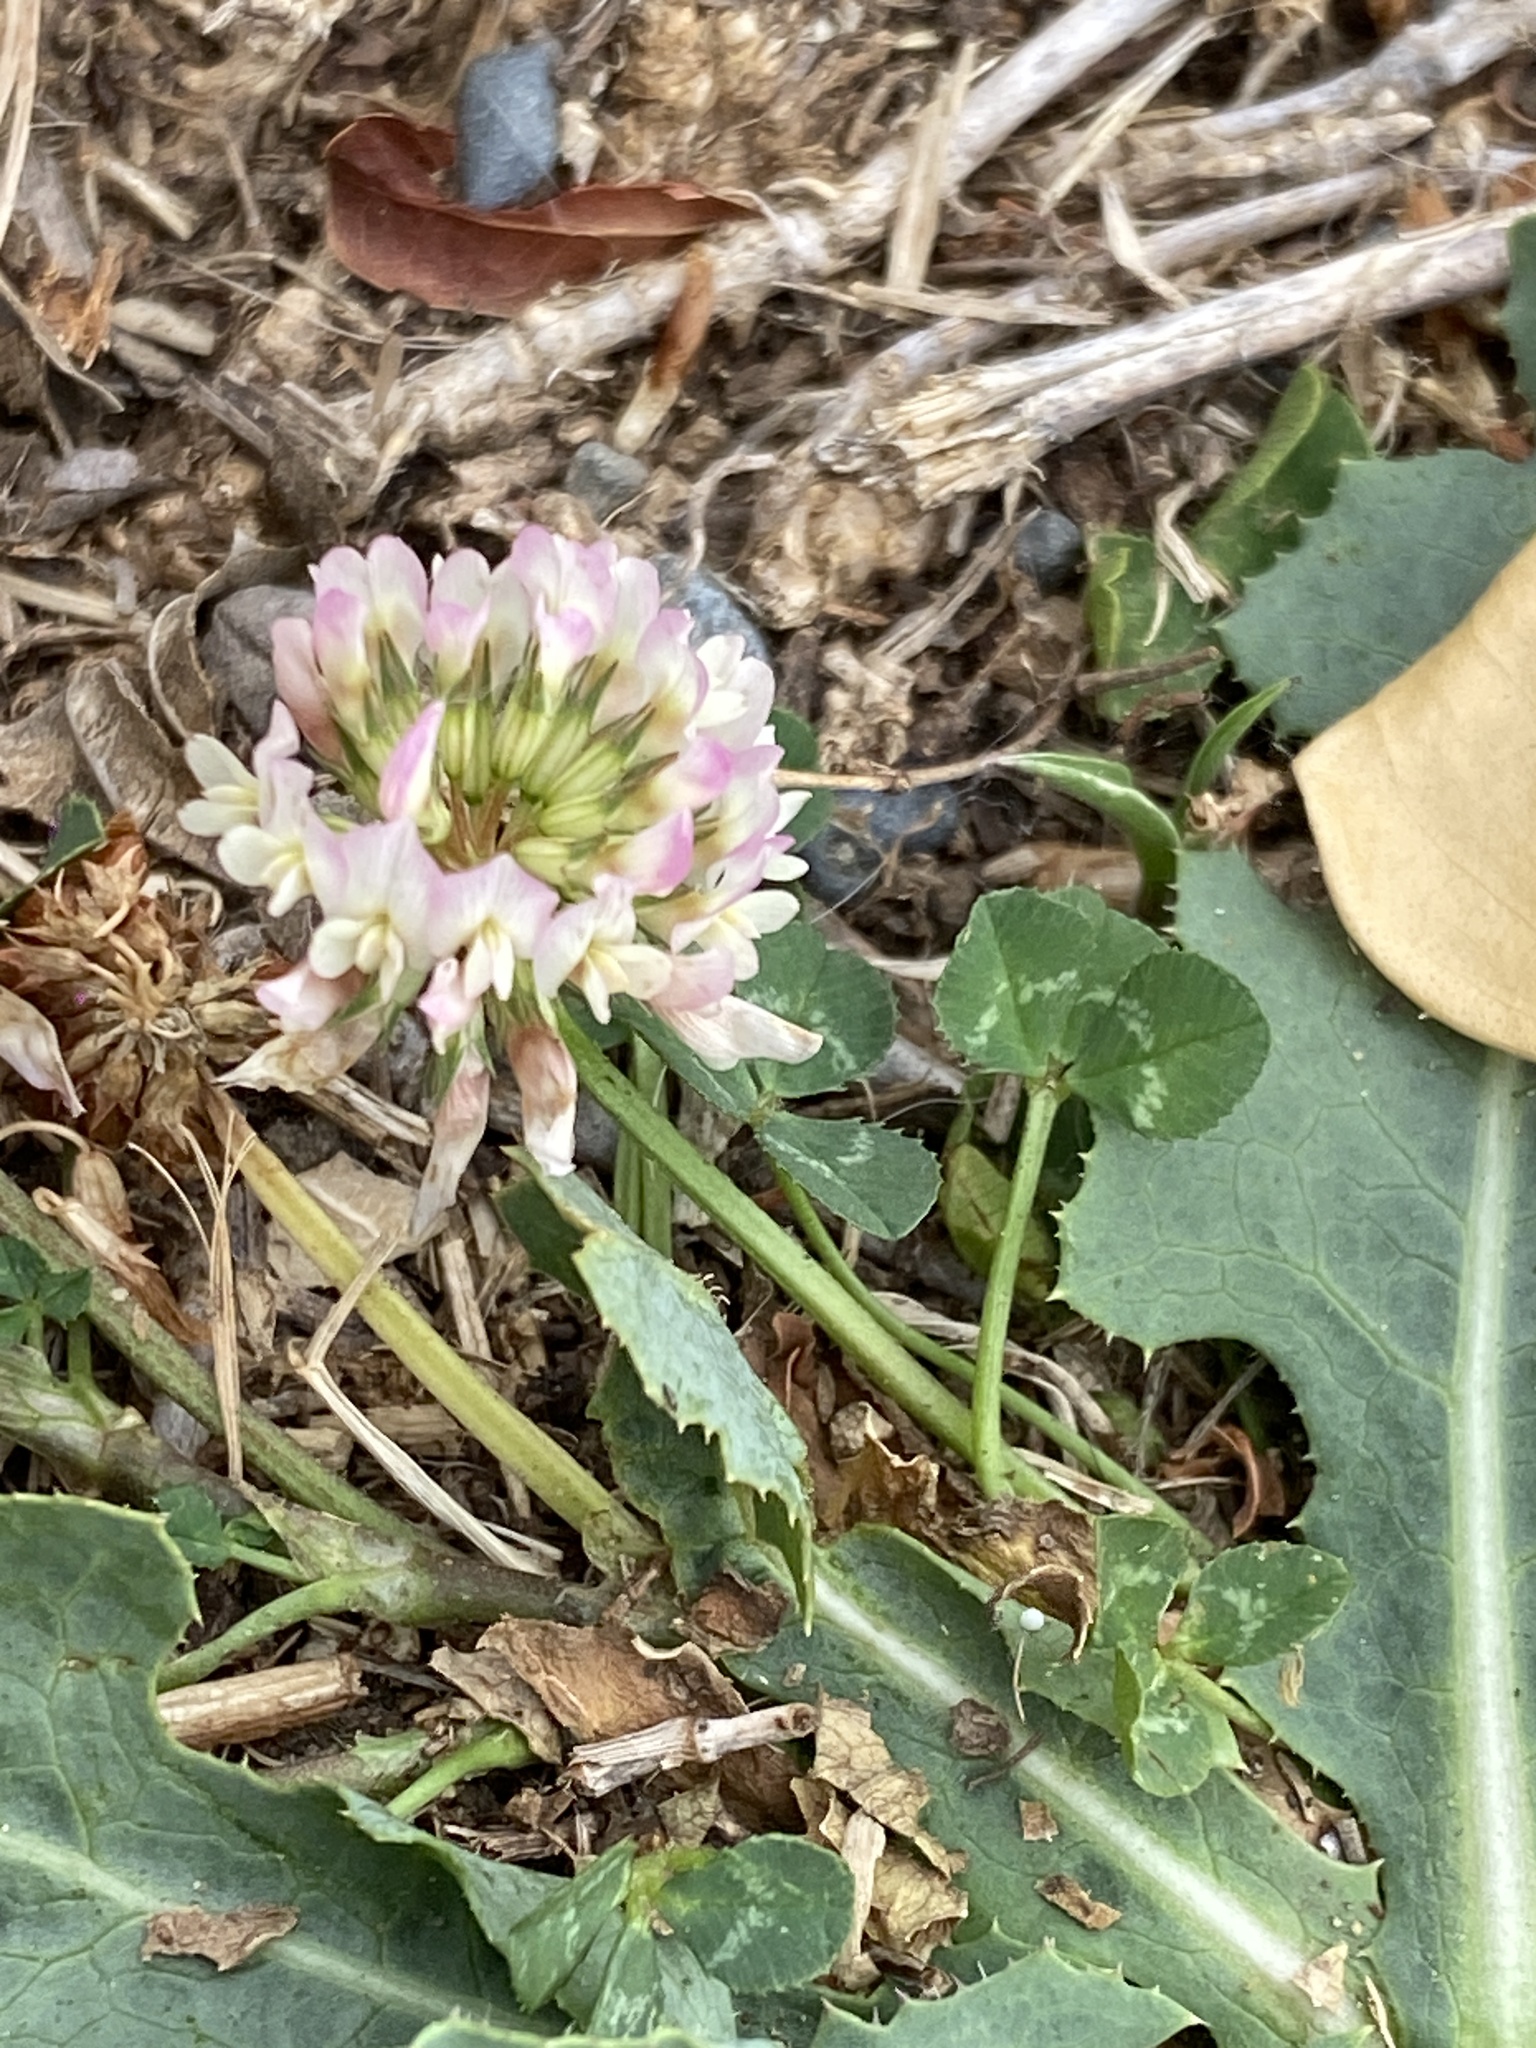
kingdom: Plantae
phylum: Tracheophyta
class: Magnoliopsida
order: Fabales
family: Fabaceae
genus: Trifolium
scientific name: Trifolium repens
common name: White clover
